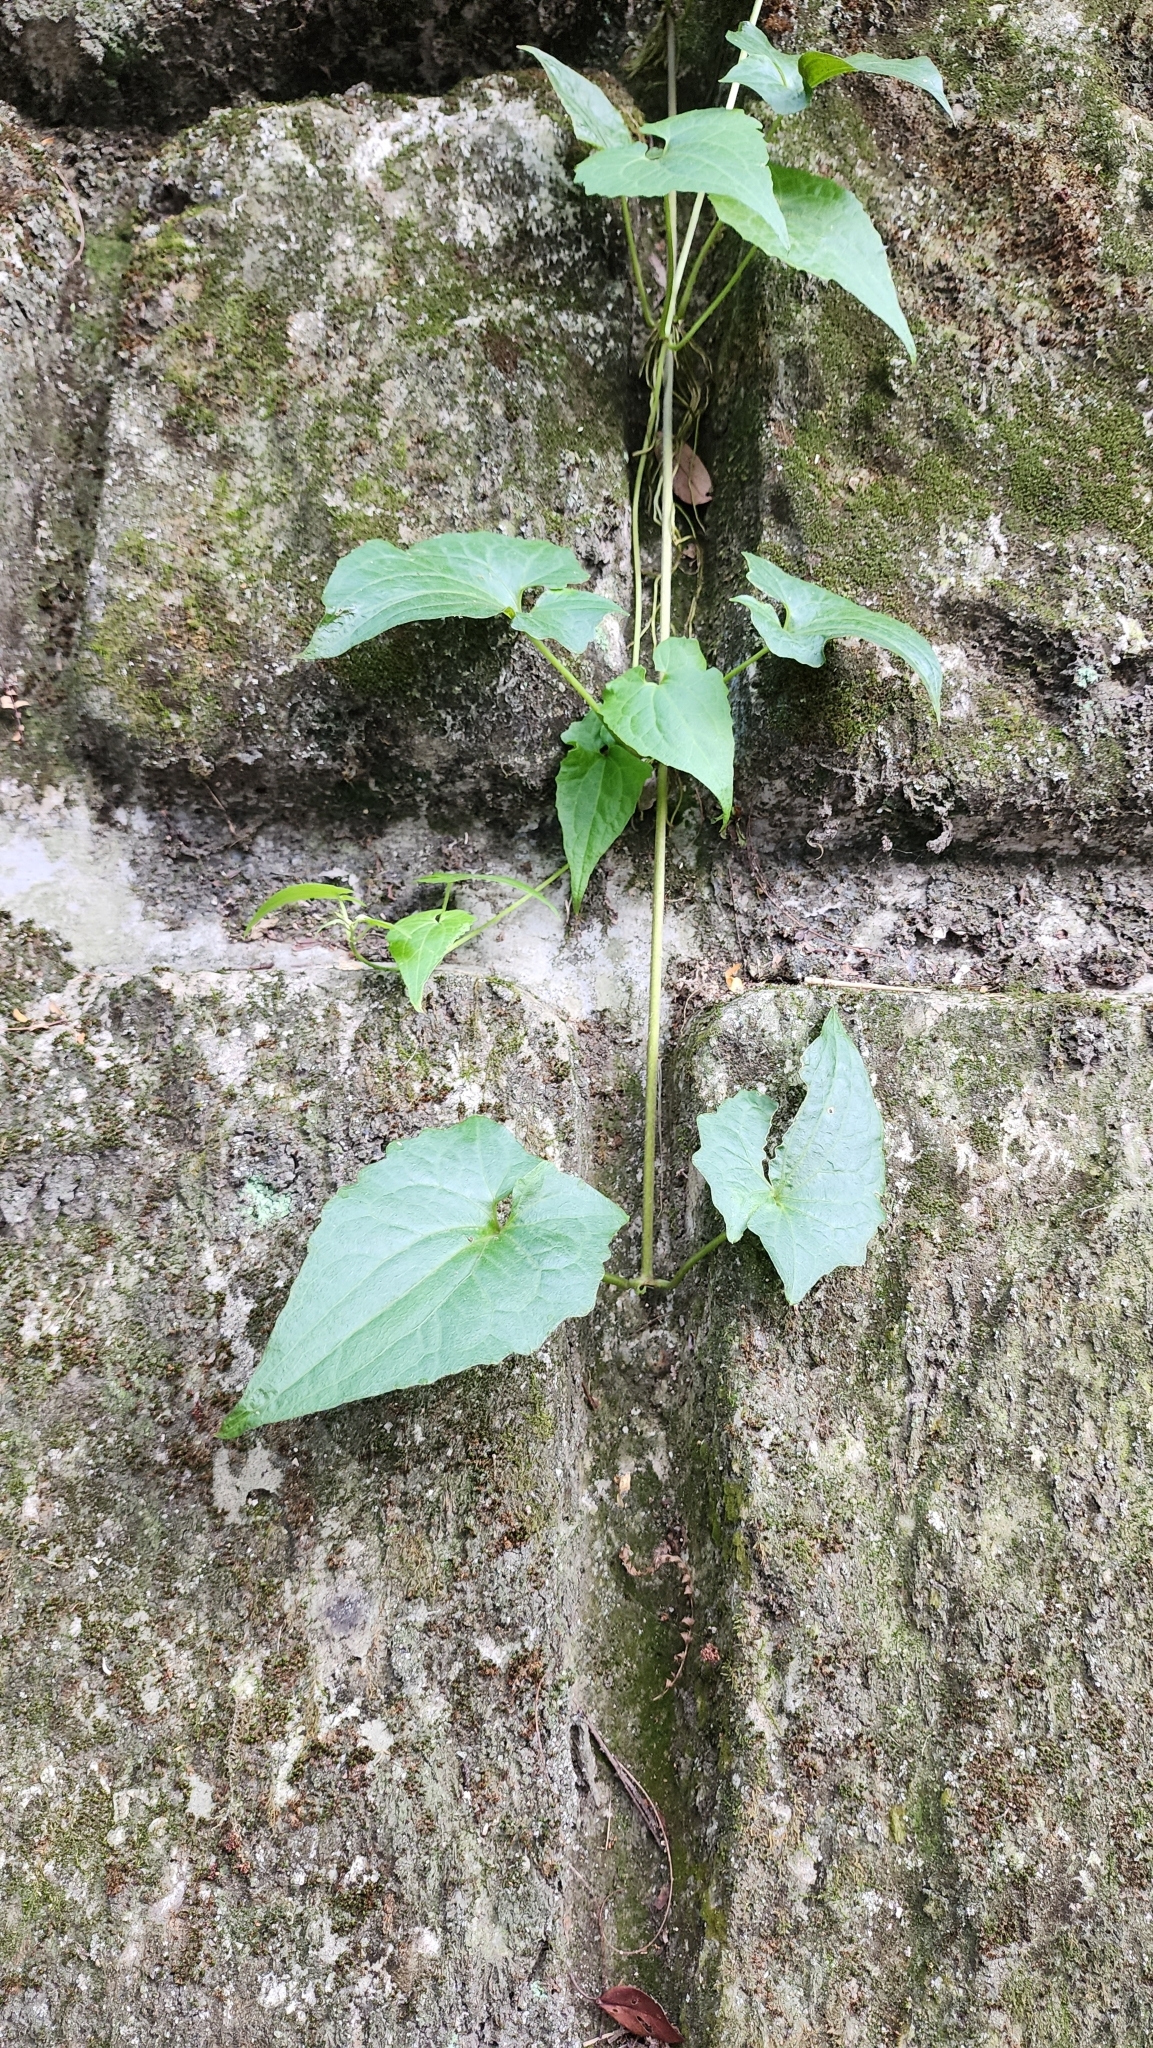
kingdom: Plantae
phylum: Tracheophyta
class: Magnoliopsida
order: Asterales
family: Asteraceae
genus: Mikania
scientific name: Mikania micrantha
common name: Mile-a-minute
